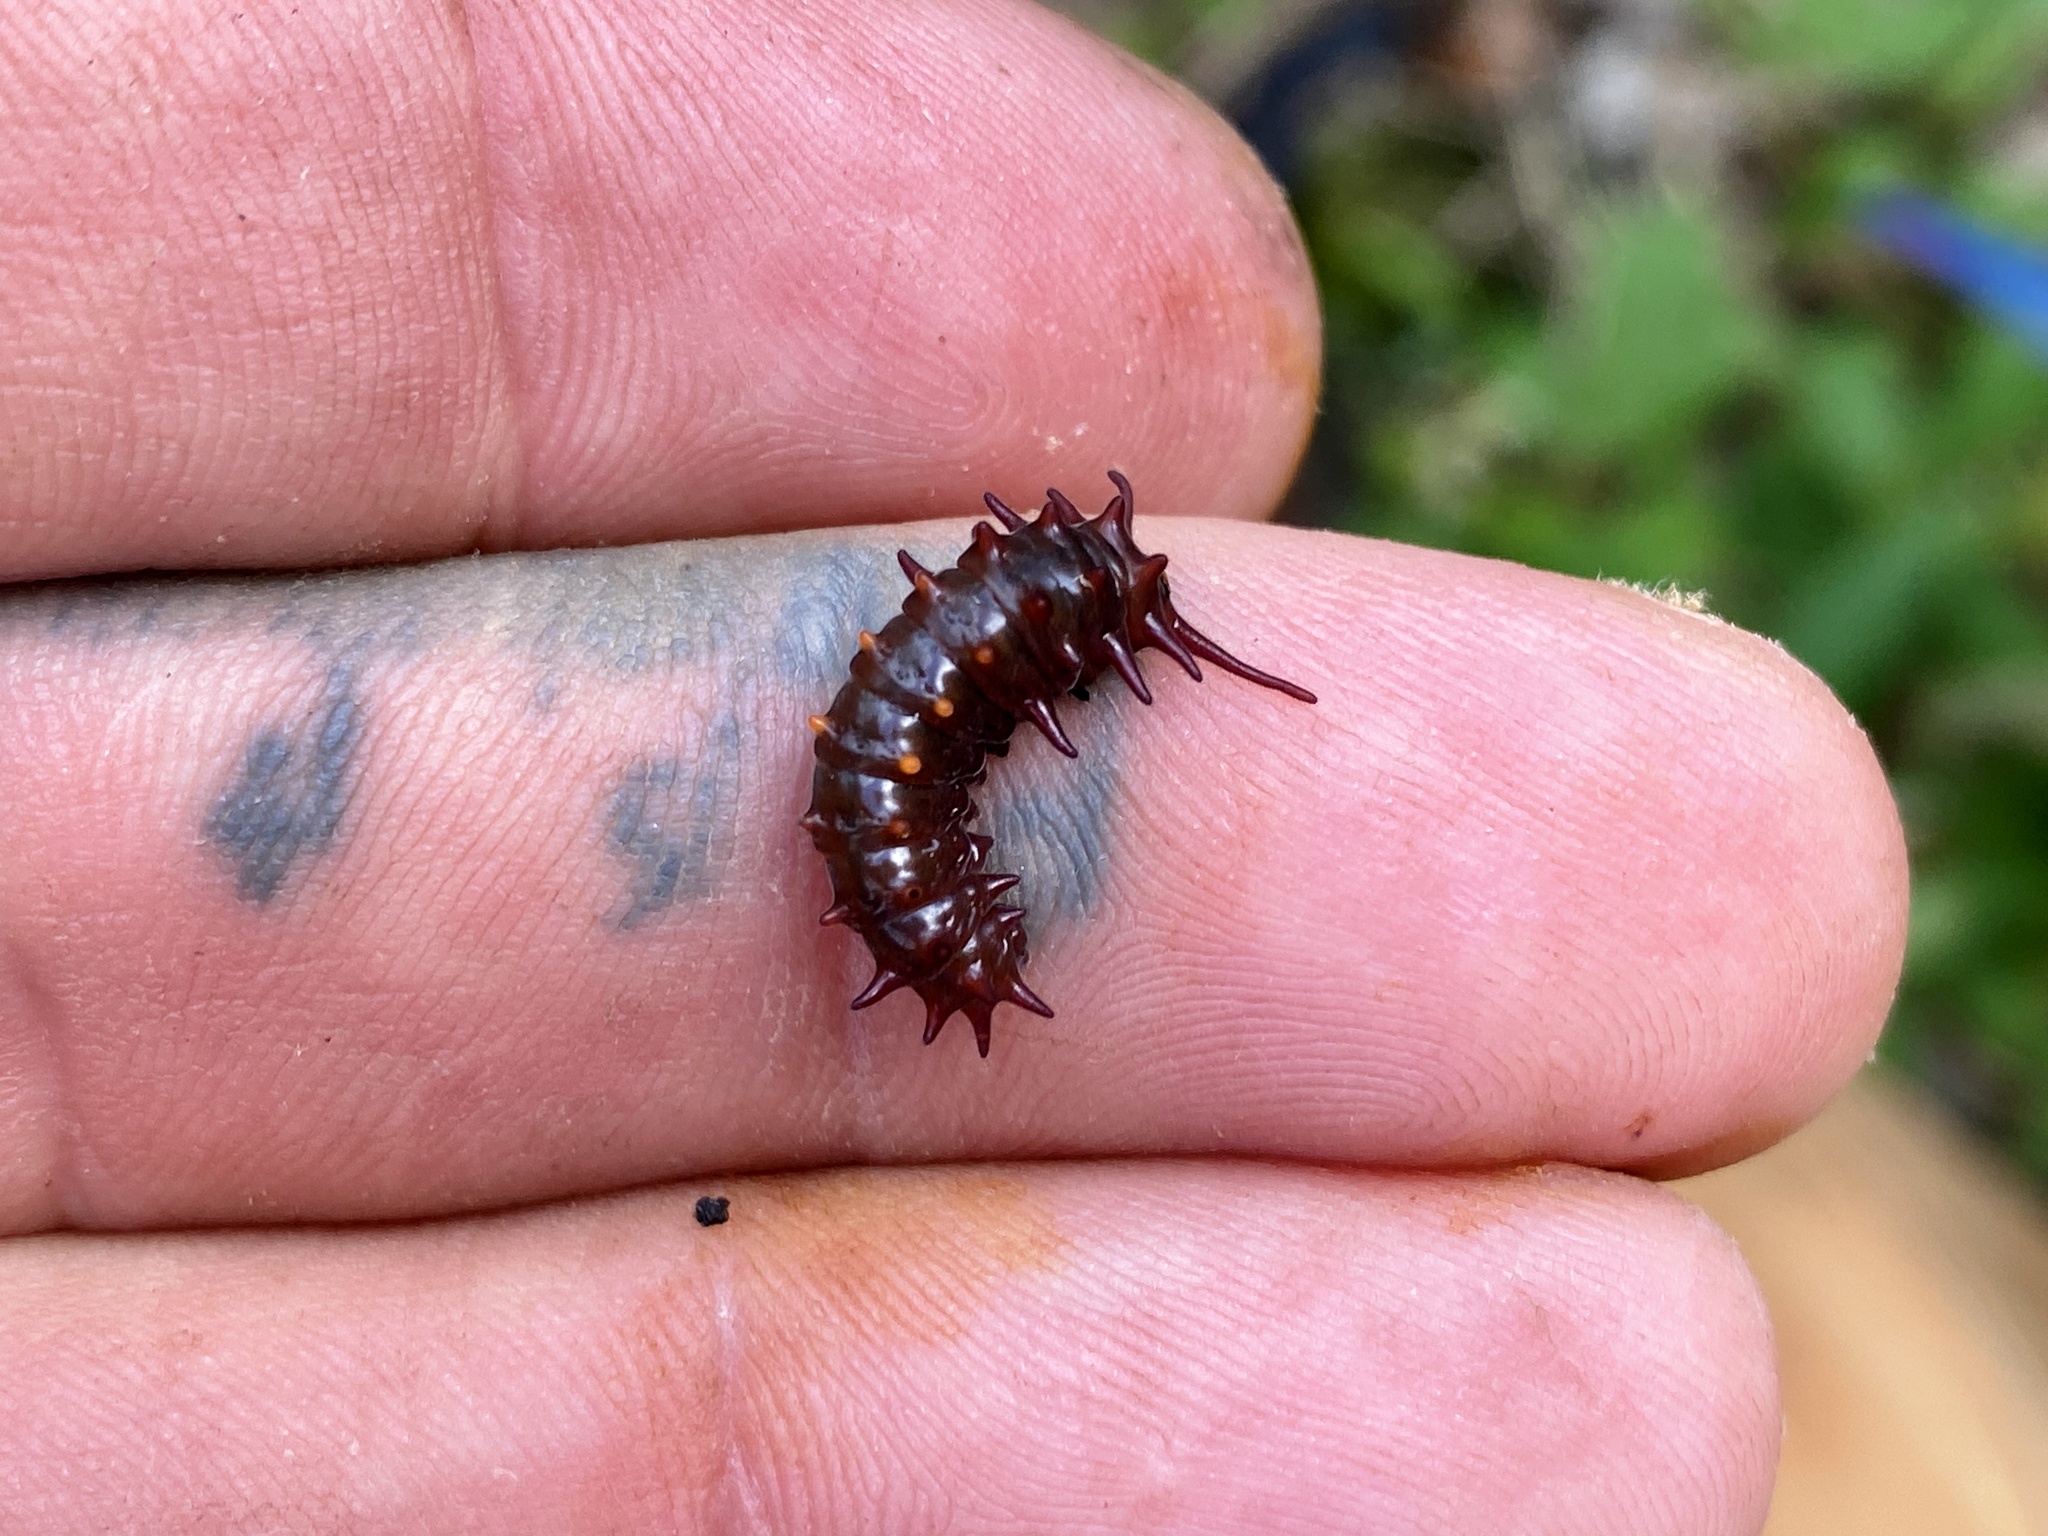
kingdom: Animalia
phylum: Arthropoda
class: Insecta
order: Lepidoptera
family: Papilionidae
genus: Battus
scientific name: Battus philenor
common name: Pipevine swallowtail
